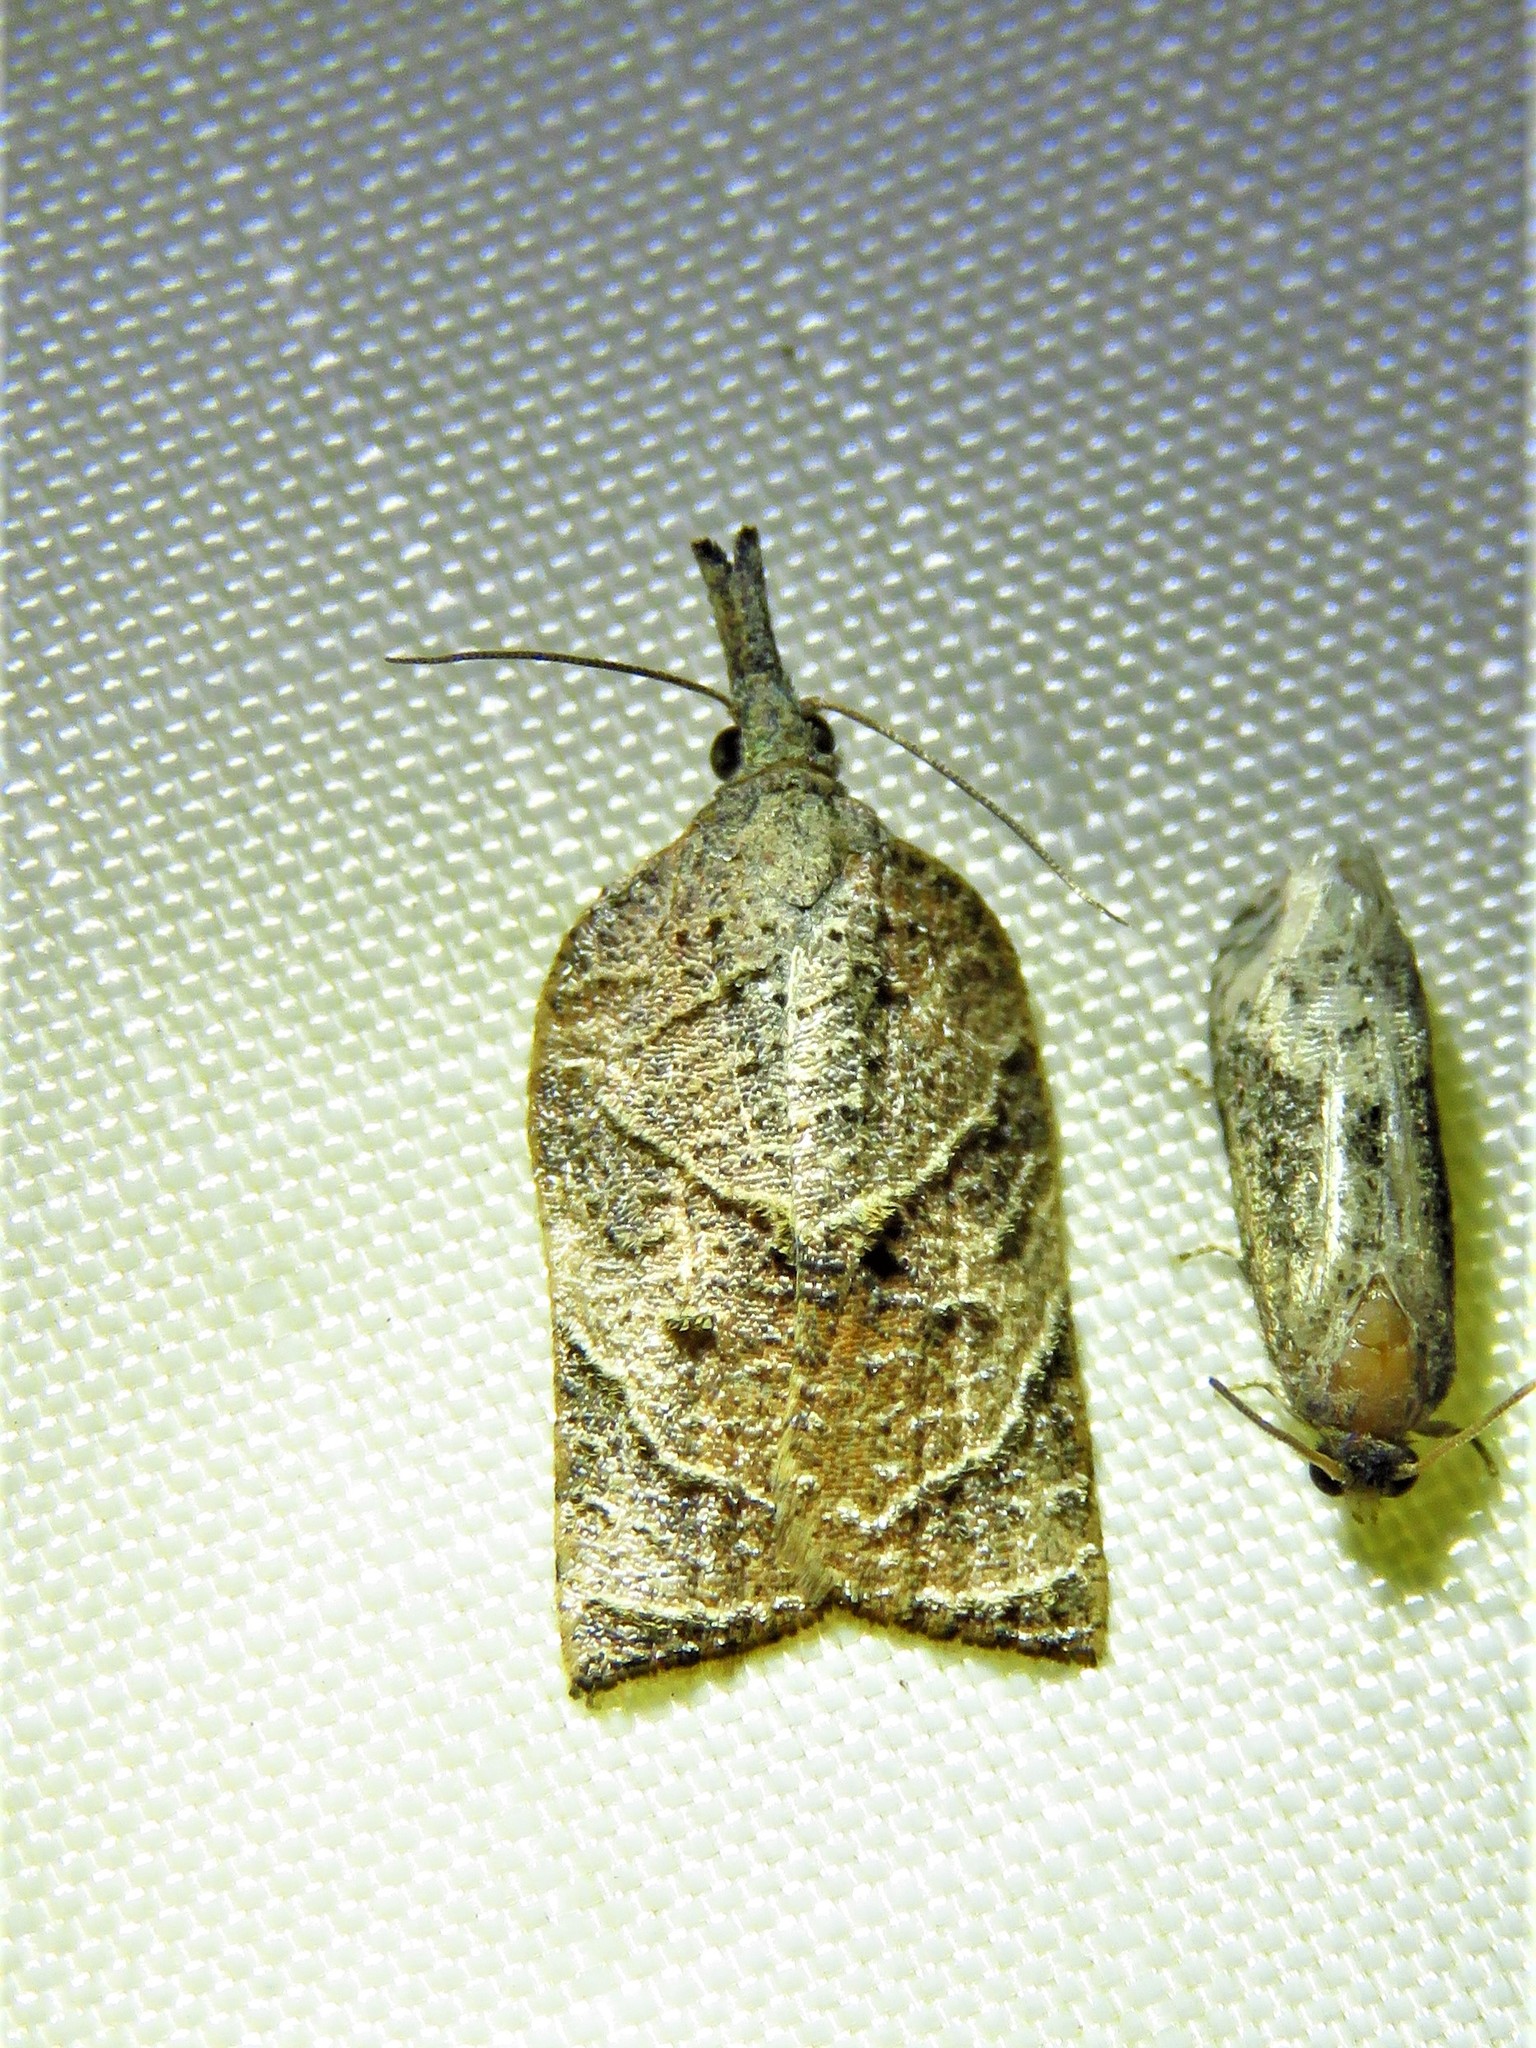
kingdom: Animalia
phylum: Arthropoda
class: Insecta
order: Lepidoptera
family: Tortricidae
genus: Platynota
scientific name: Platynota rostrana
